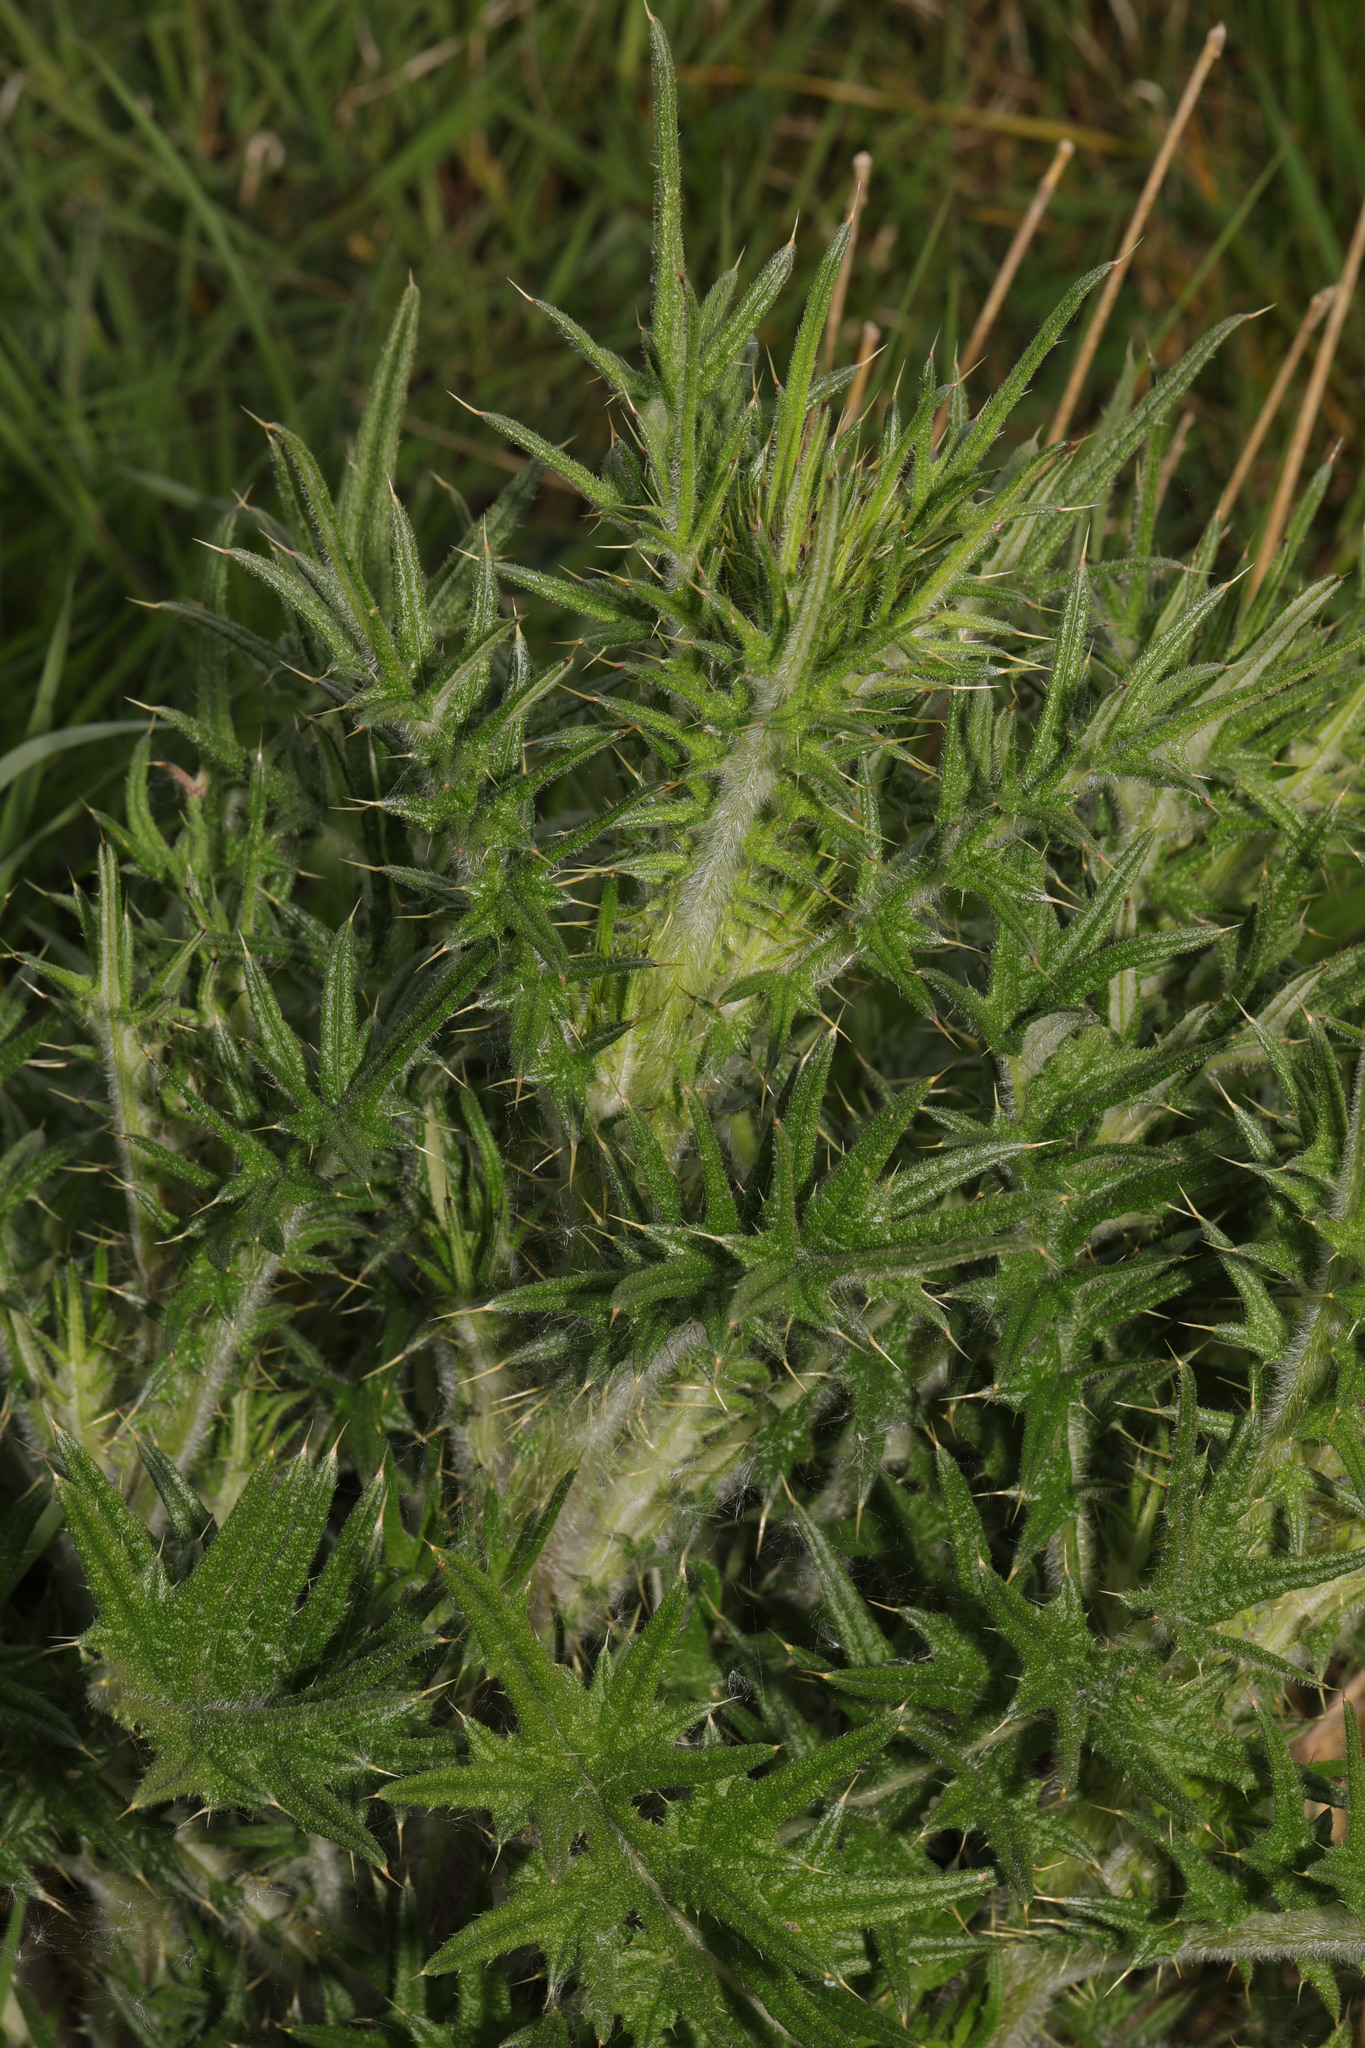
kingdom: Plantae
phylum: Tracheophyta
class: Magnoliopsida
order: Asterales
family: Asteraceae
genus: Cirsium
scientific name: Cirsium vulgare
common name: Bull thistle
